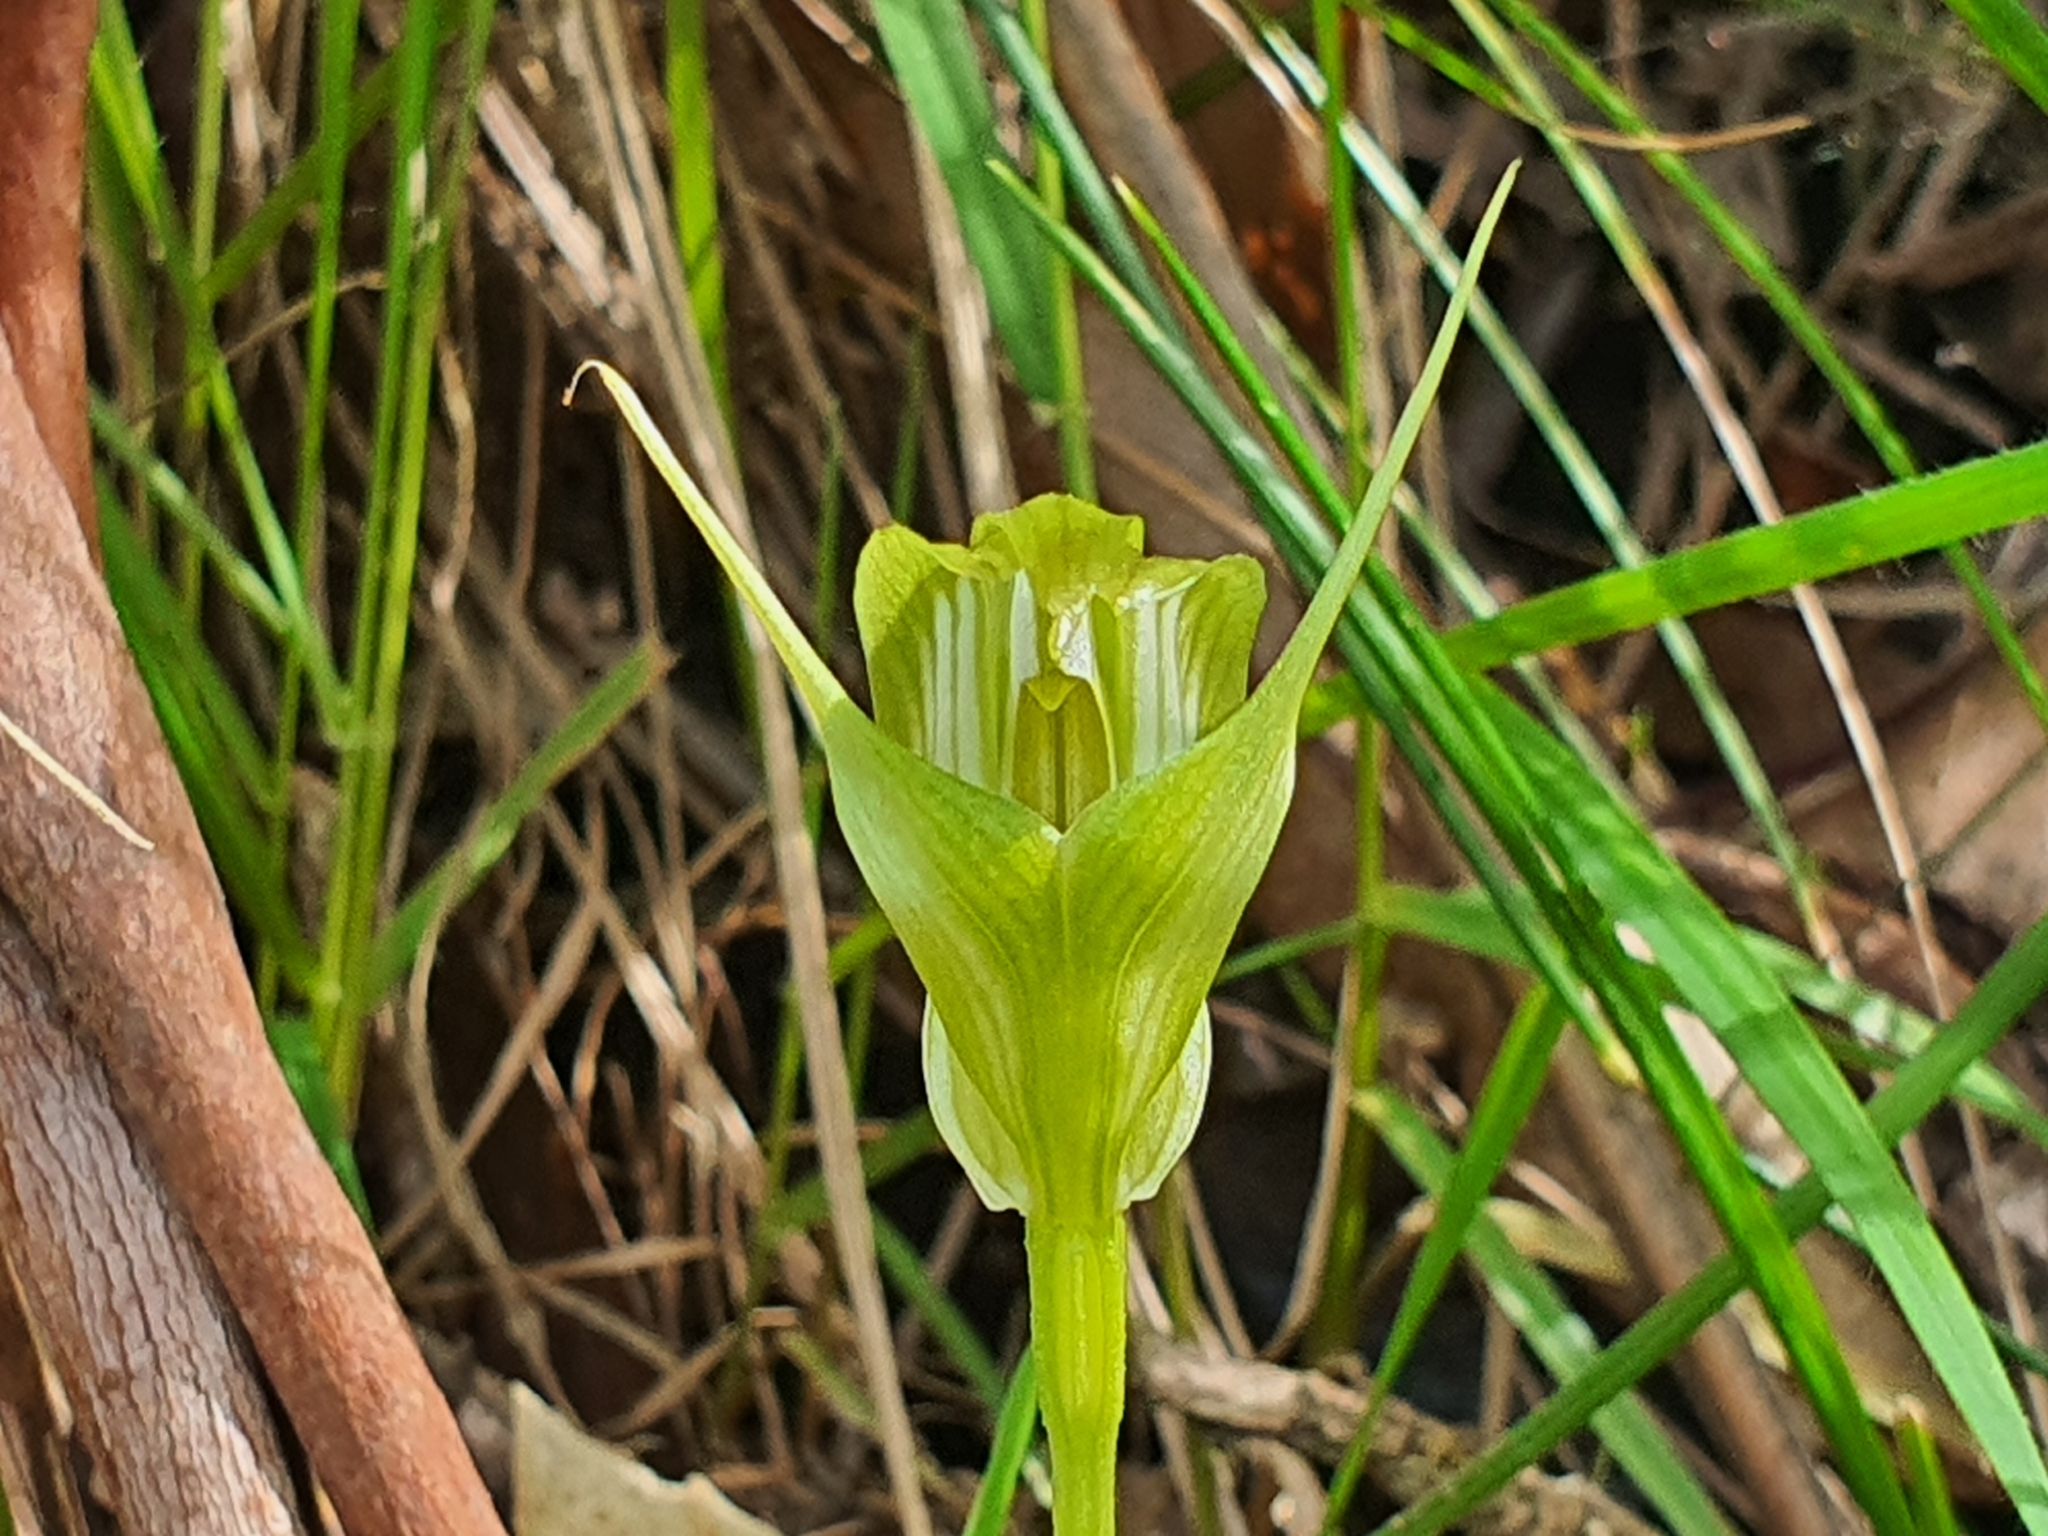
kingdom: Plantae
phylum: Tracheophyta
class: Liliopsida
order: Asparagales
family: Orchidaceae
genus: Pterostylis
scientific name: Pterostylis alpina
